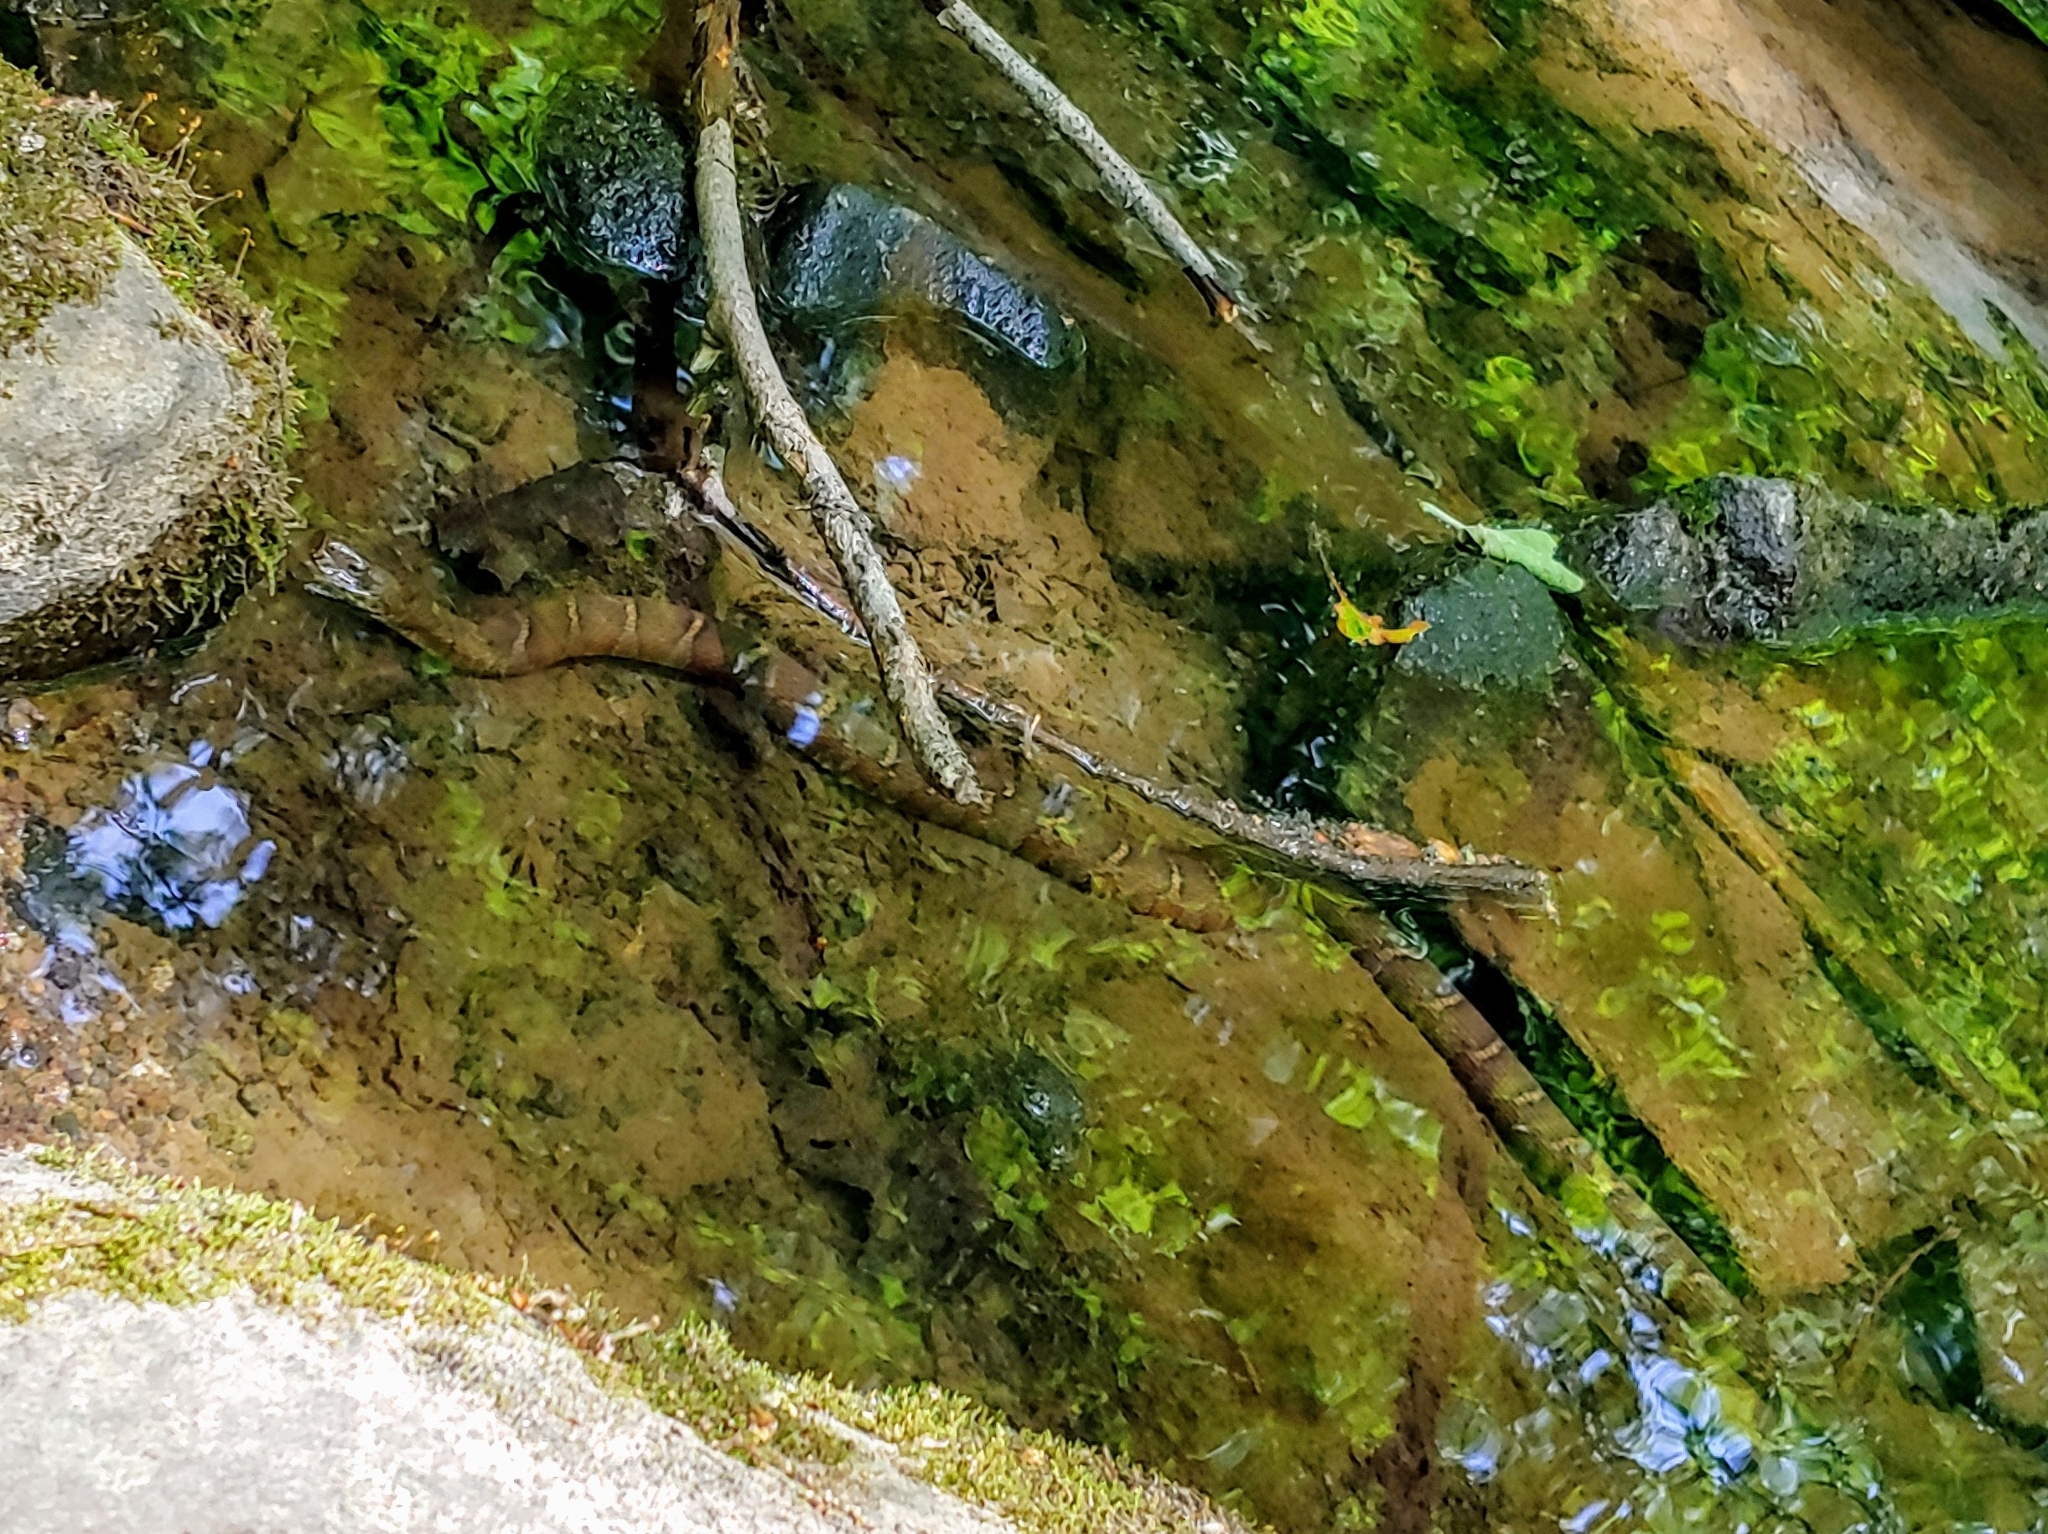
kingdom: Animalia
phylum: Chordata
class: Squamata
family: Colubridae
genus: Nerodia
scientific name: Nerodia sipedon
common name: Northern water snake
